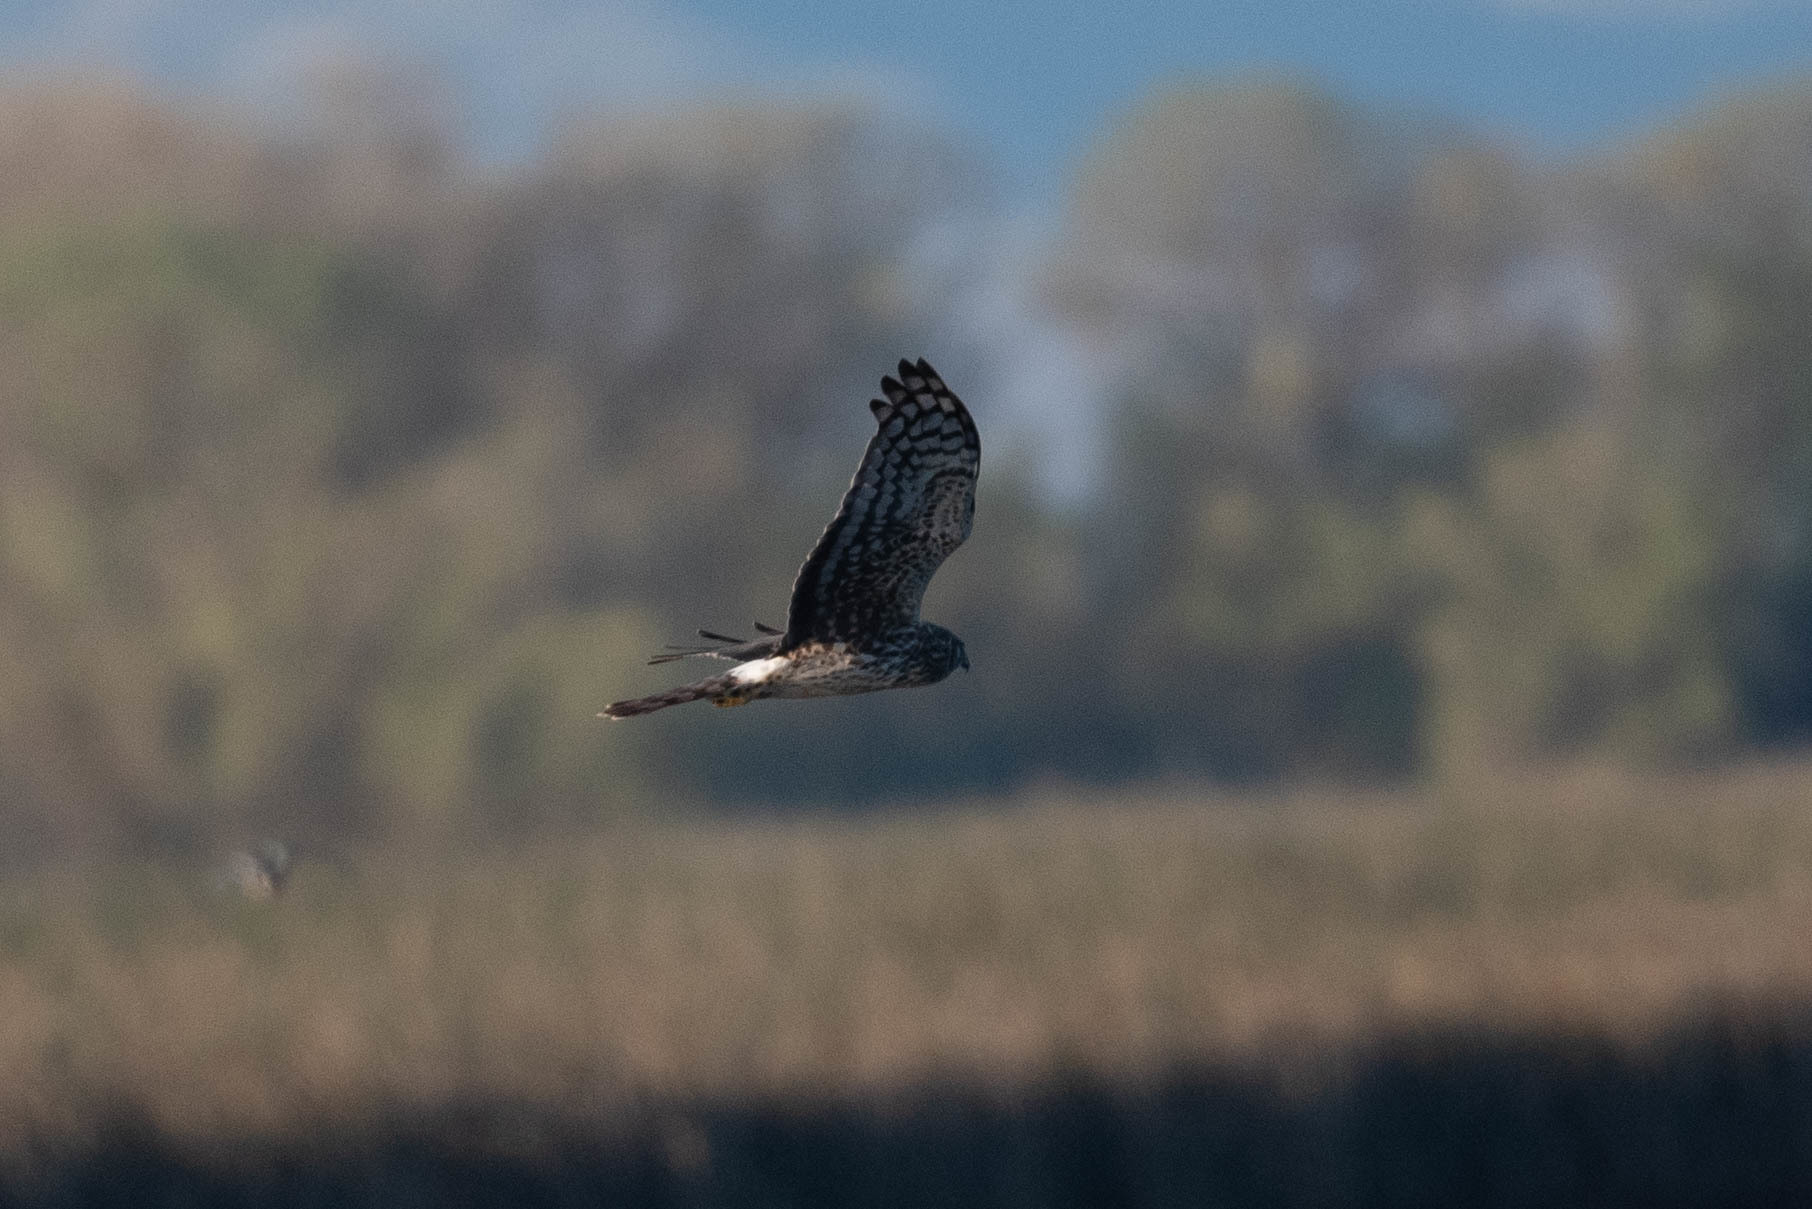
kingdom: Animalia
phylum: Chordata
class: Aves
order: Accipitriformes
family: Accipitridae
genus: Circus
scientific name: Circus cyaneus
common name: Hen harrier
